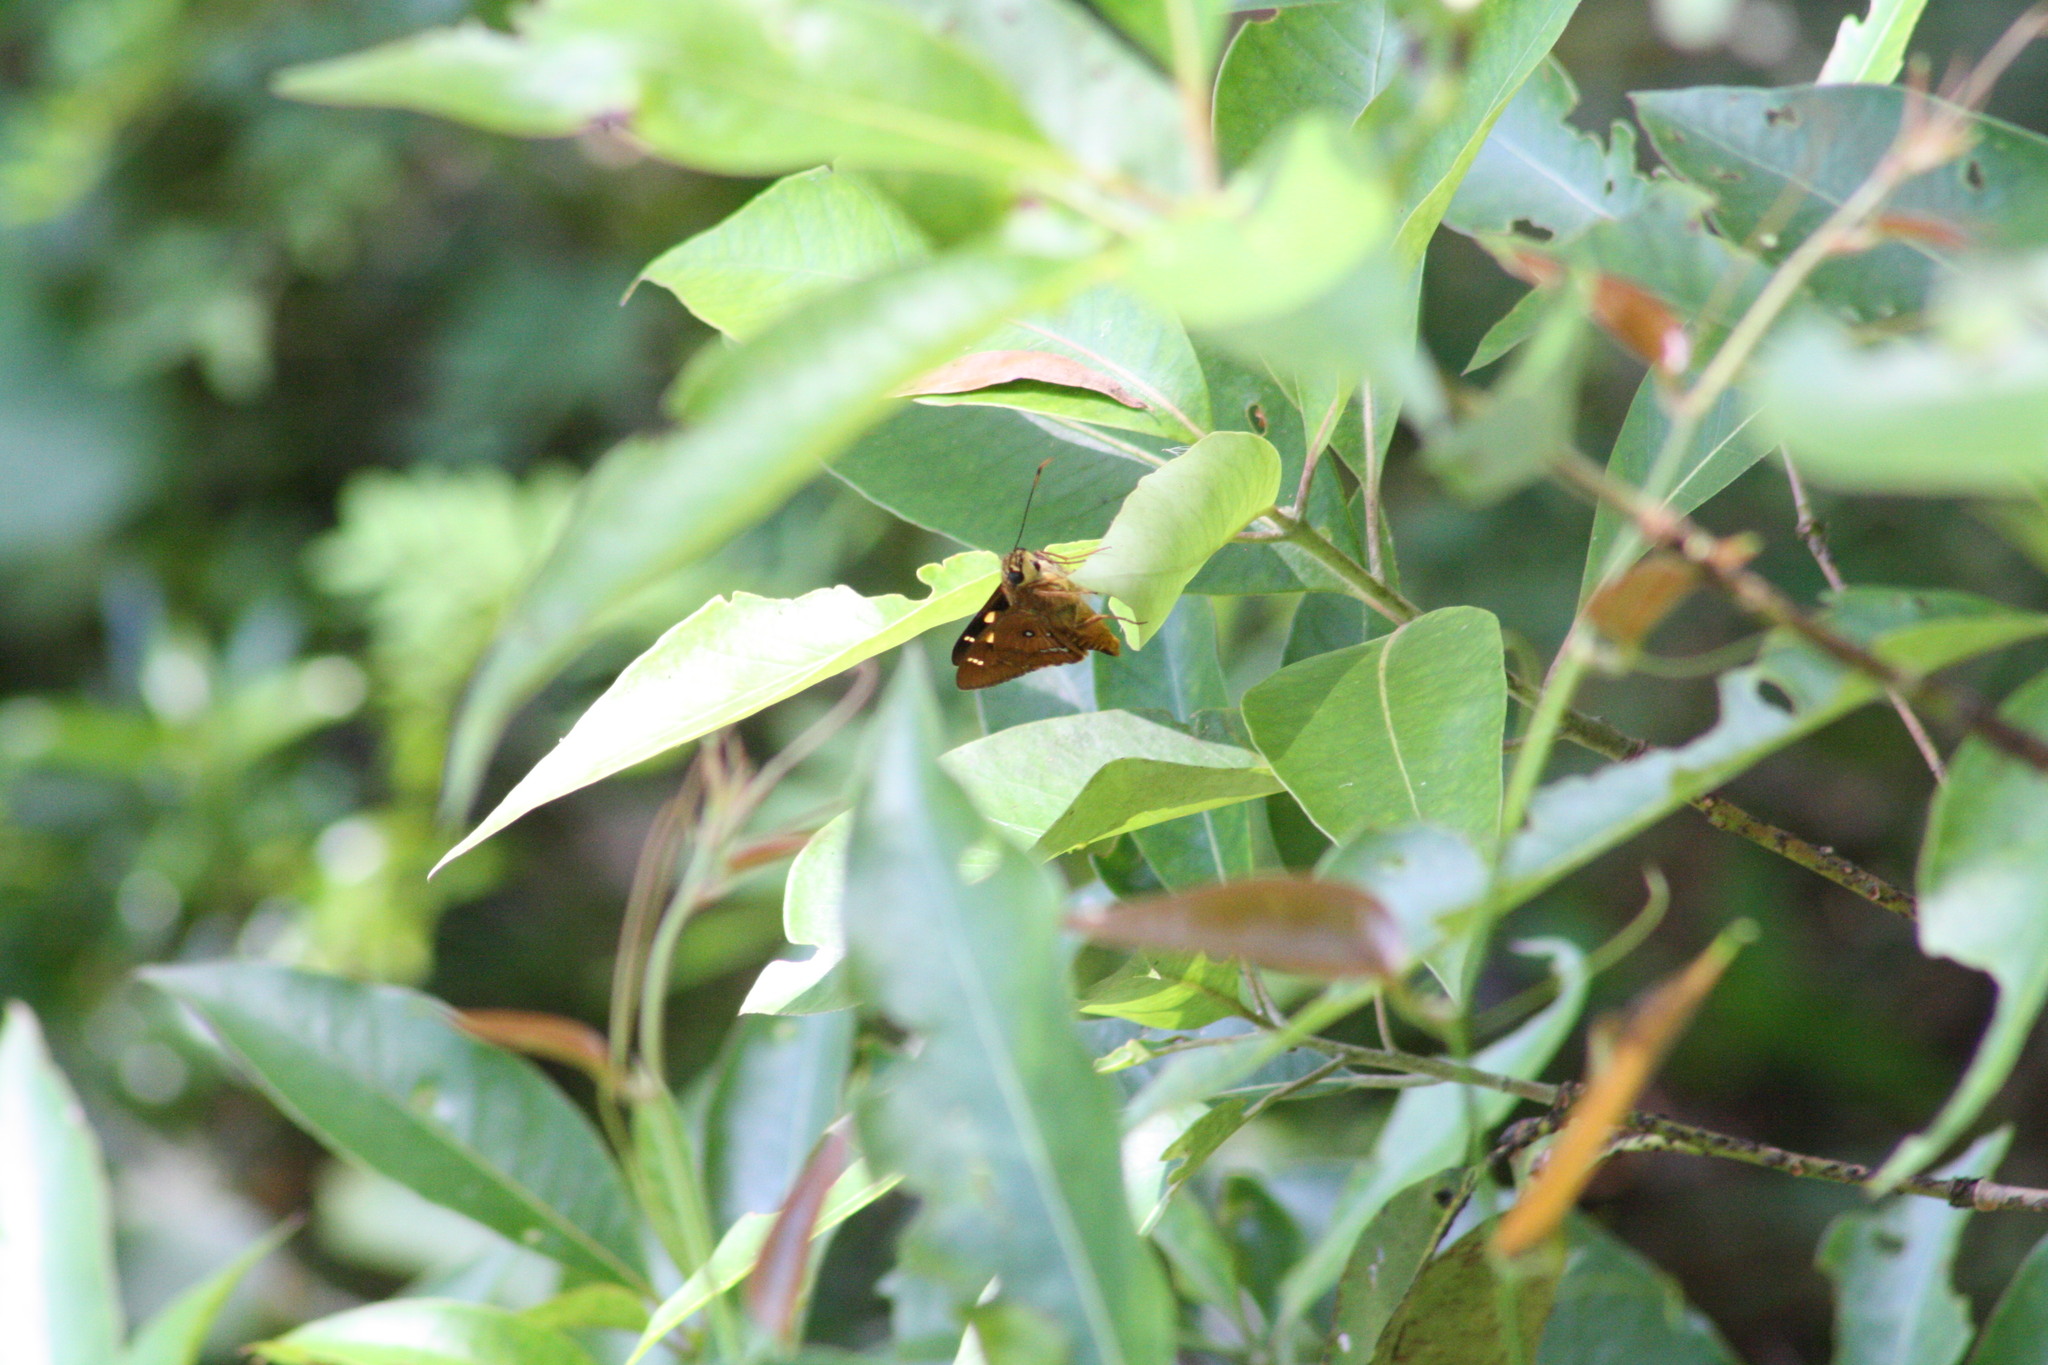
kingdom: Animalia
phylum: Arthropoda
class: Insecta
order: Lepidoptera
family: Hesperiidae
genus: Trapezites
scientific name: Trapezites symmomus
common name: Splendid ochre
